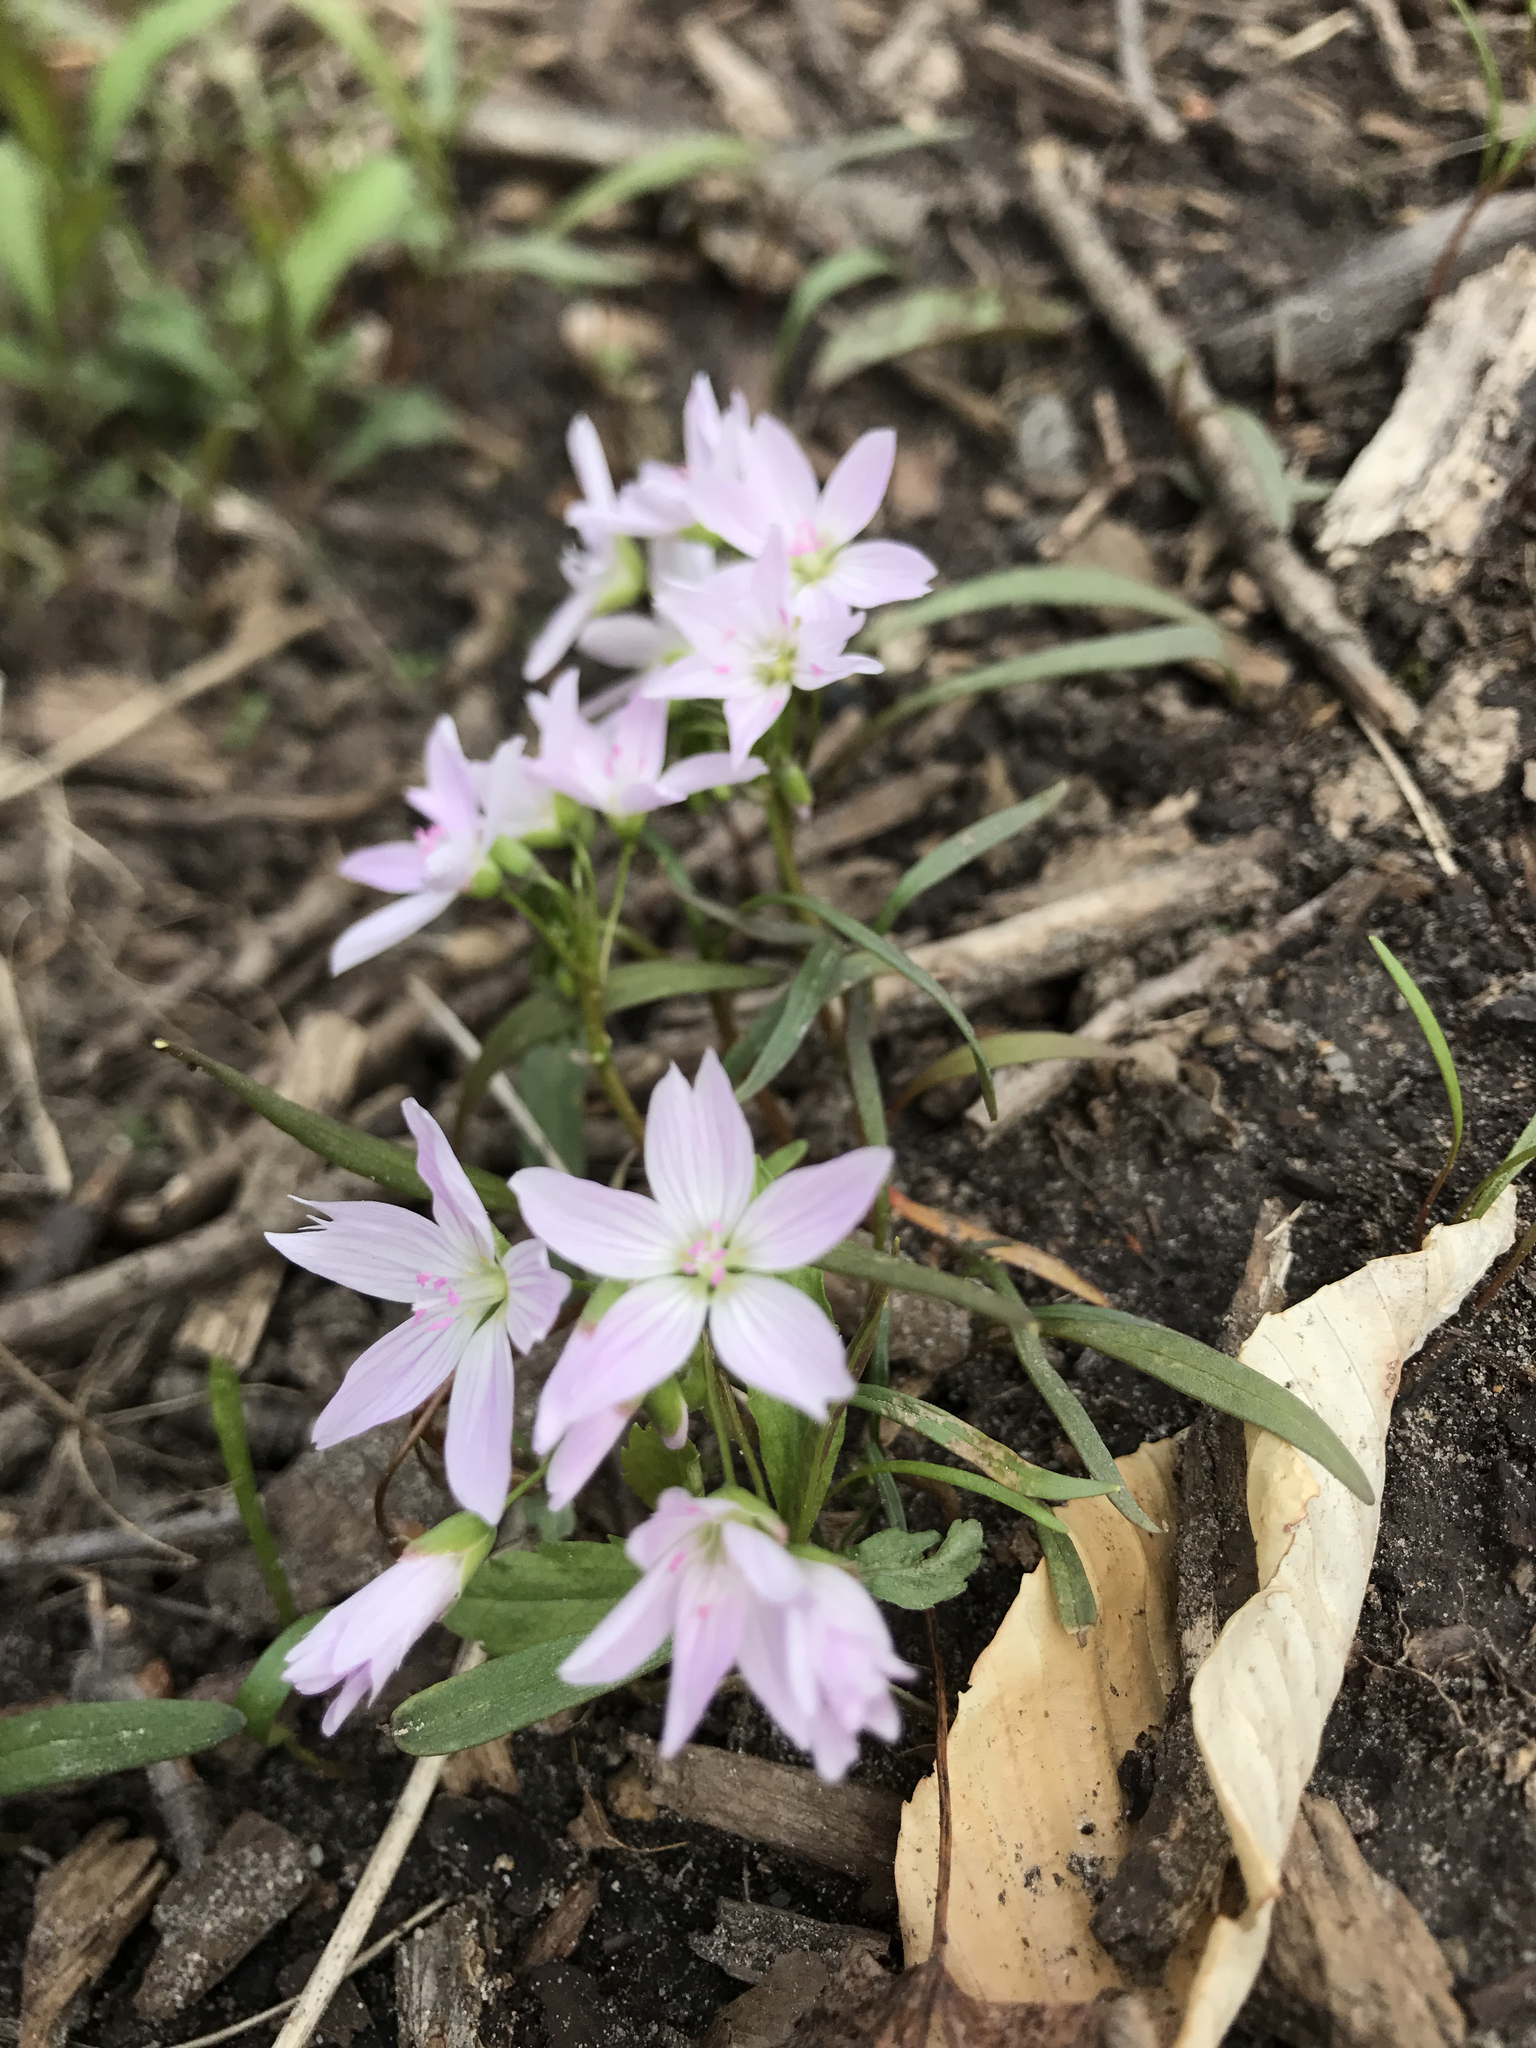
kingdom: Plantae
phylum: Tracheophyta
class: Magnoliopsida
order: Caryophyllales
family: Montiaceae
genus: Claytonia
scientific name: Claytonia virginica
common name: Virginia springbeauty
